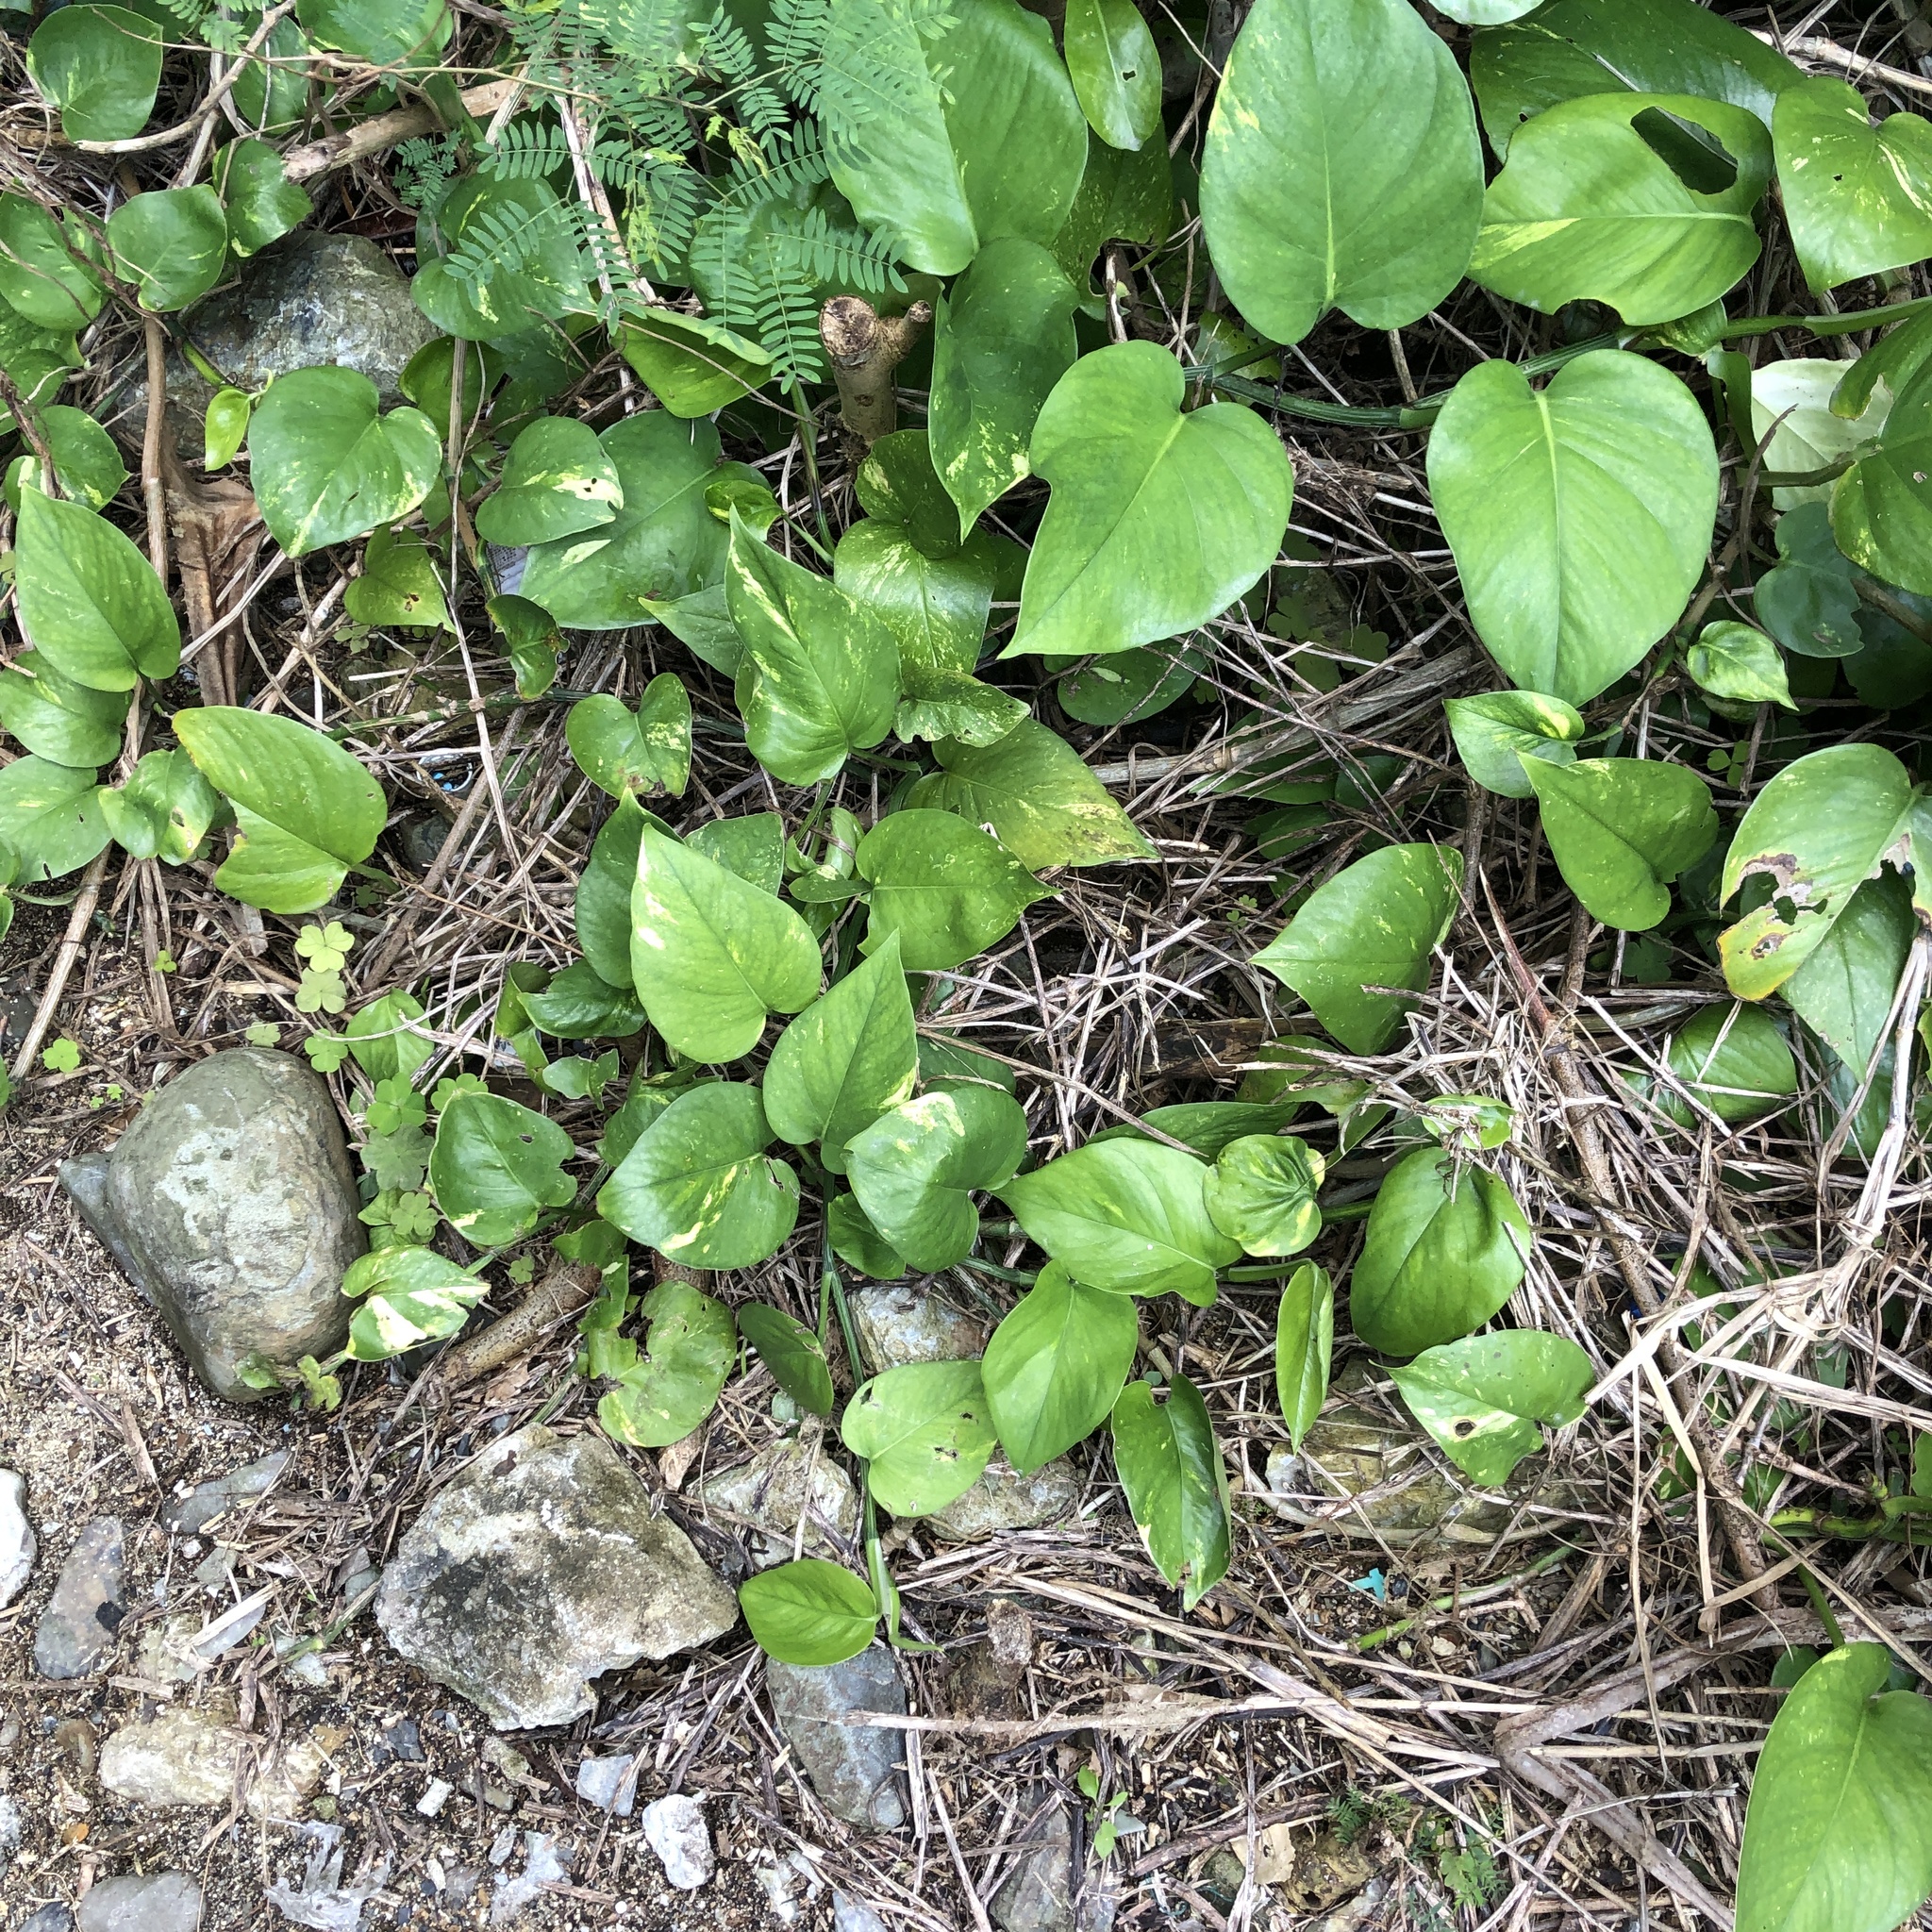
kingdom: Plantae
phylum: Tracheophyta
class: Liliopsida
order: Alismatales
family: Araceae
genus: Epipremnum
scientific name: Epipremnum aureum
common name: Golden hunter's-robe
